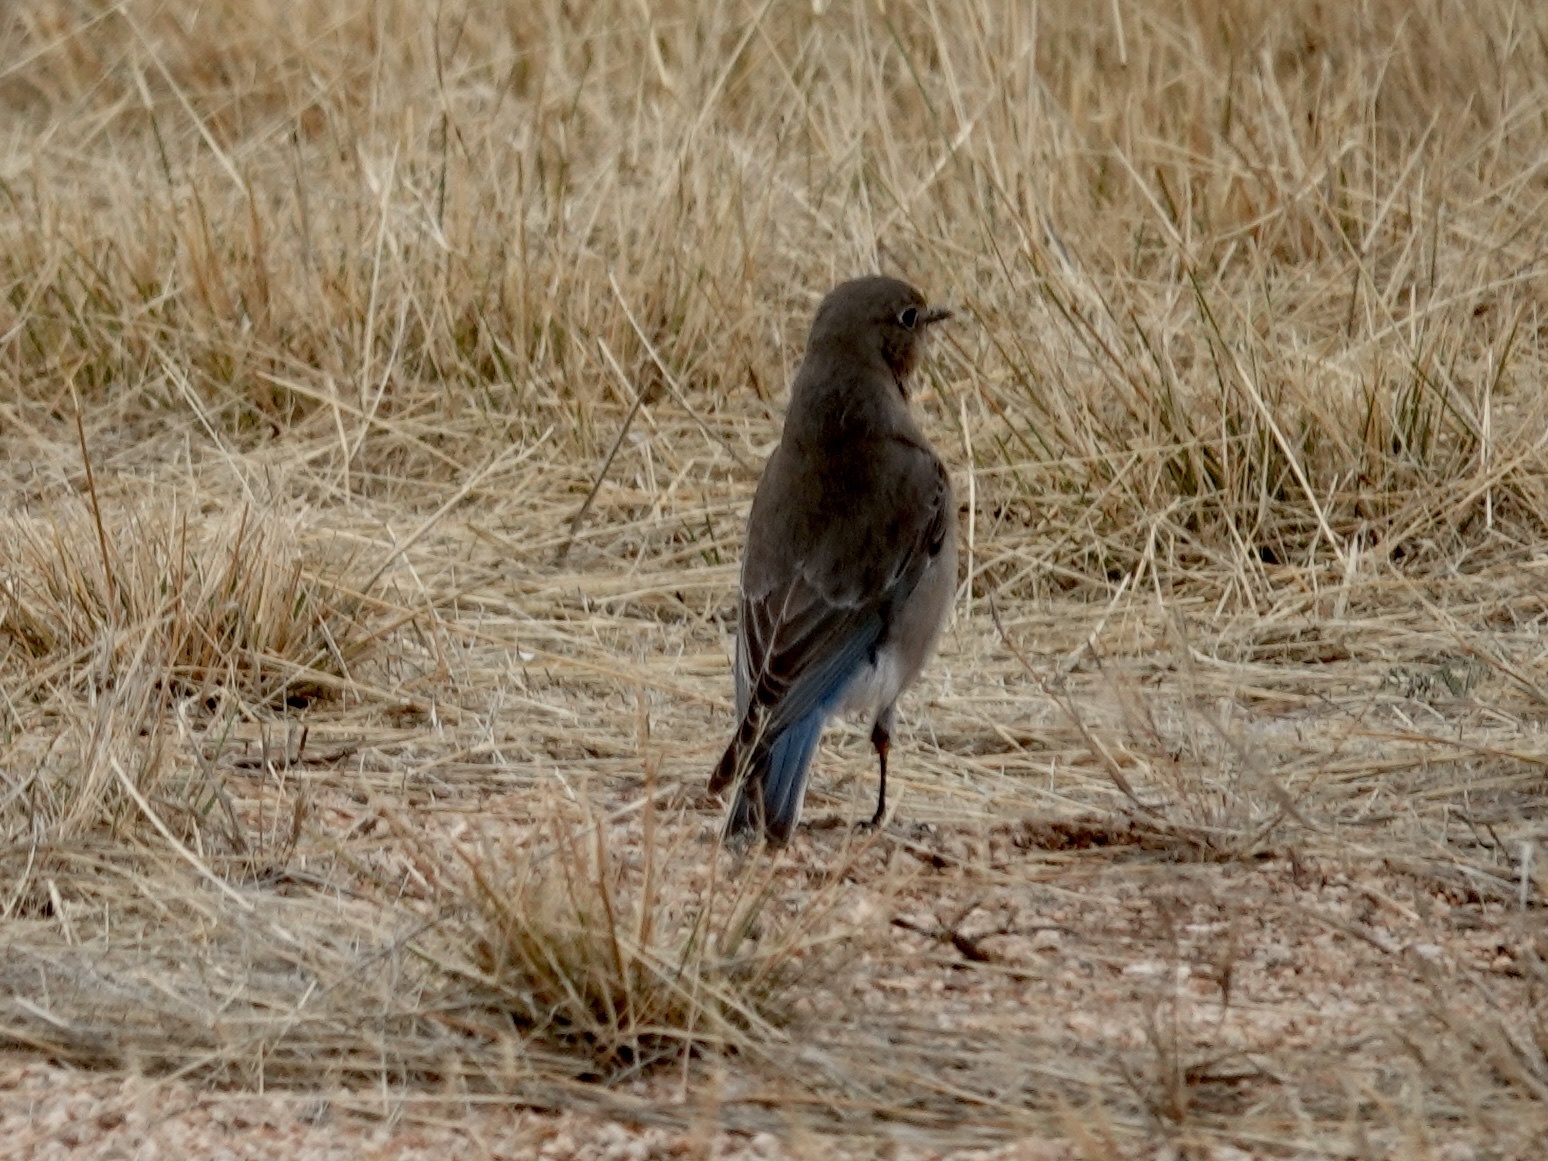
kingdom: Animalia
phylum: Chordata
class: Aves
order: Passeriformes
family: Turdidae
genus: Sialia
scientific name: Sialia currucoides
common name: Mountain bluebird
